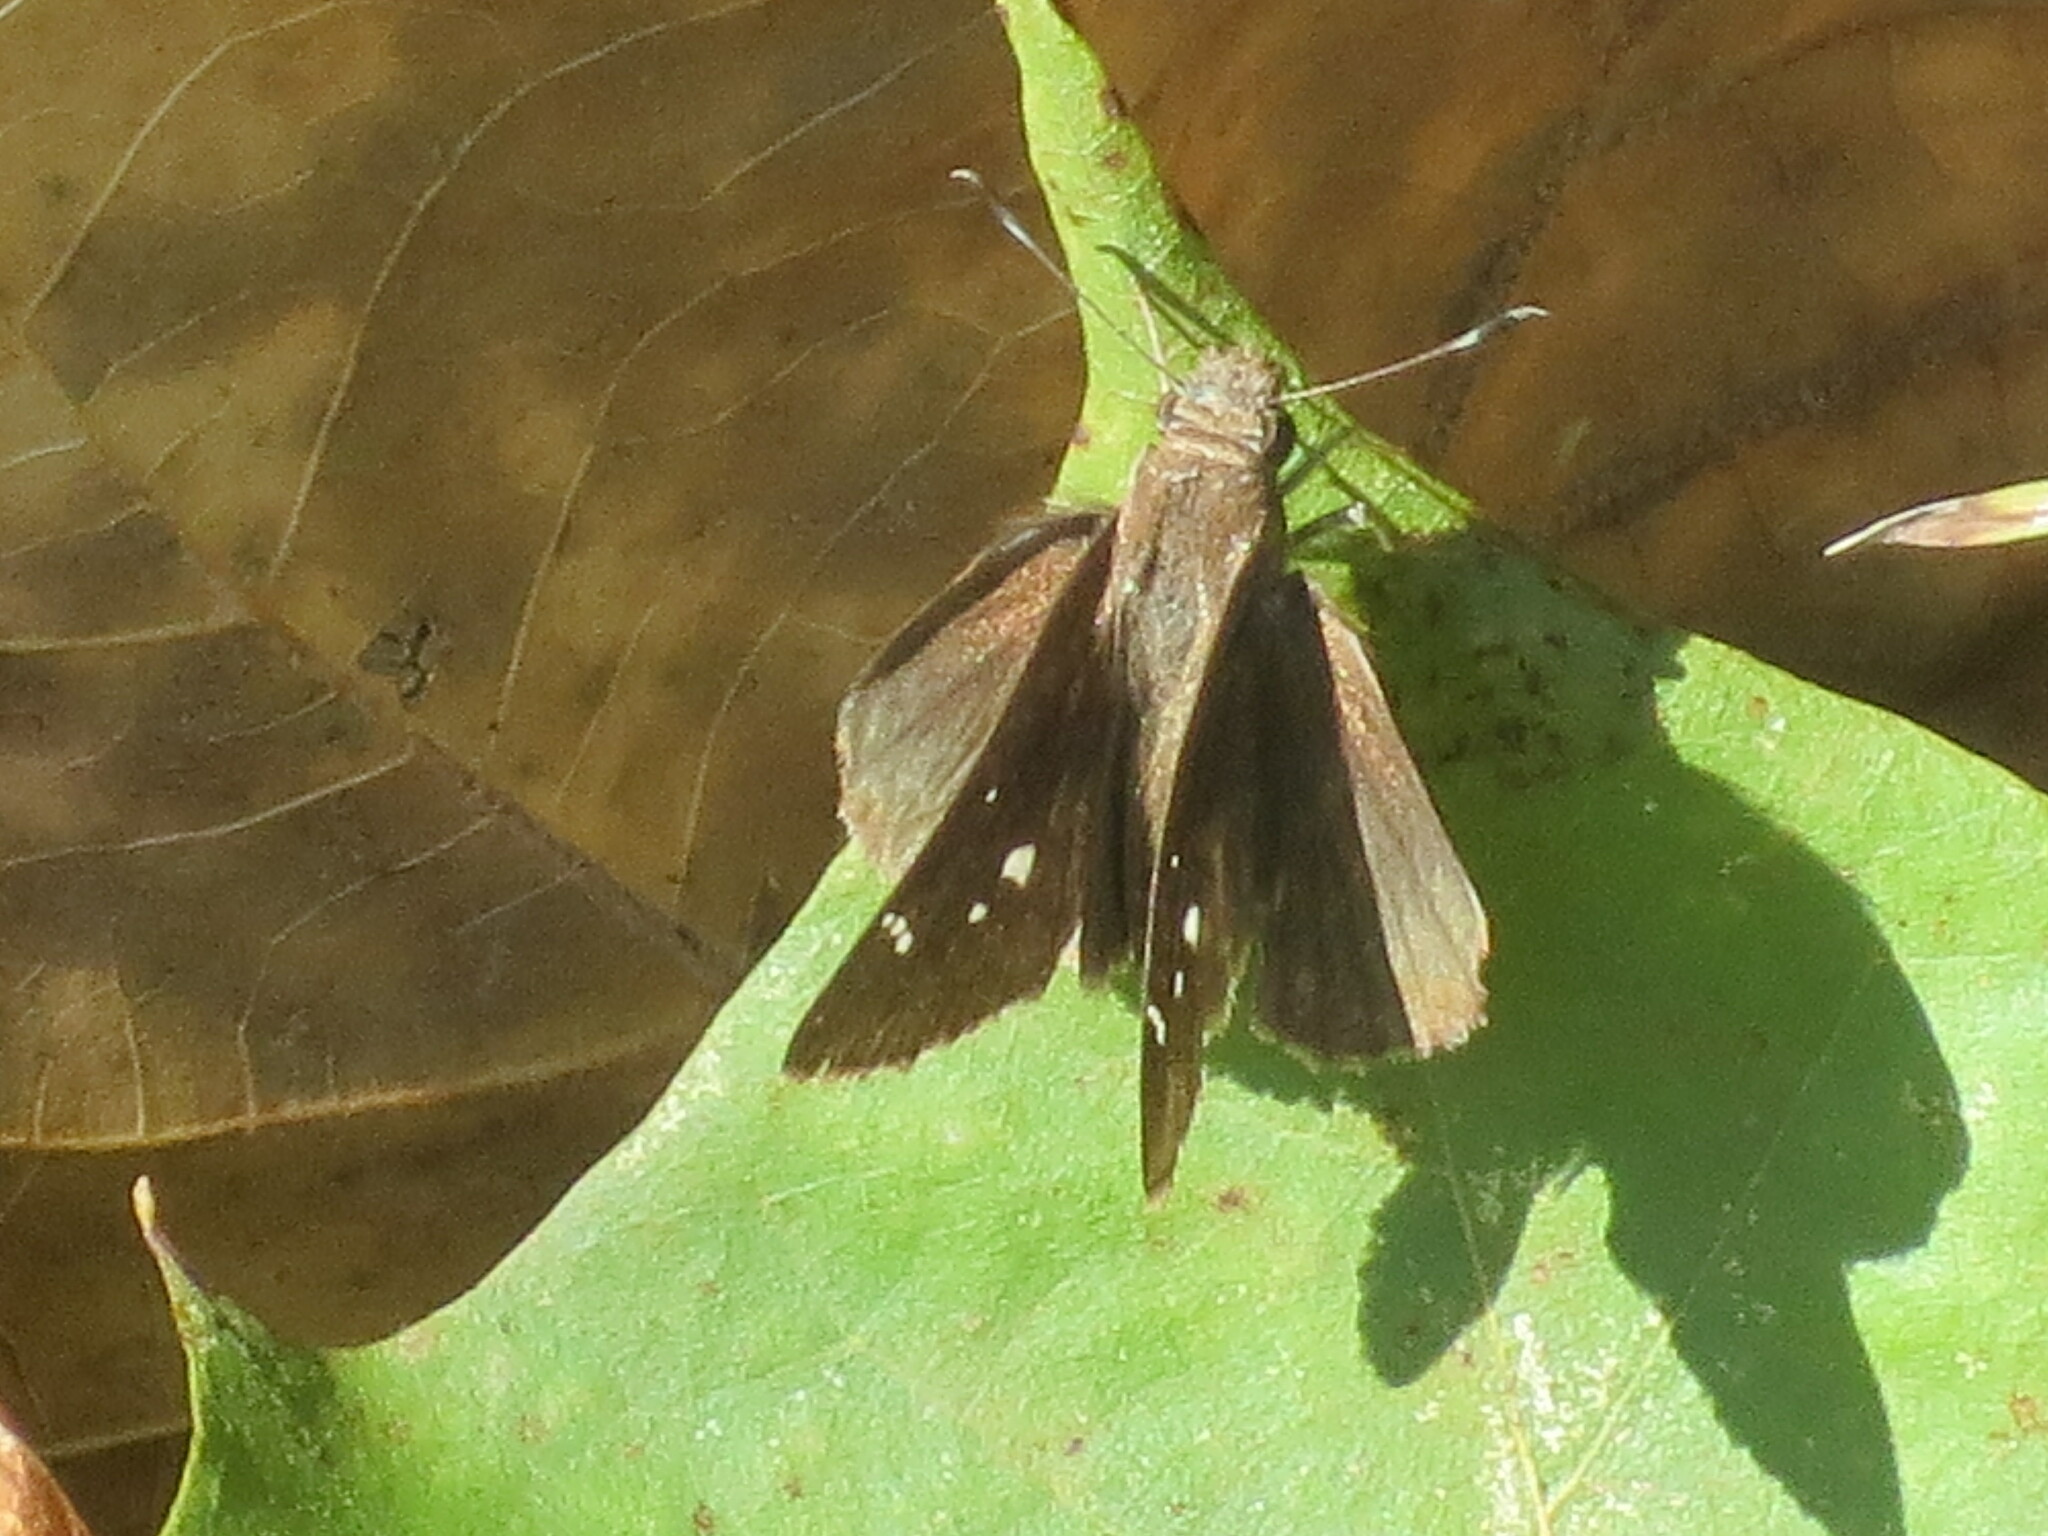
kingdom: Animalia
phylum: Arthropoda
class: Insecta
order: Lepidoptera
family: Hesperiidae
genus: Lerema
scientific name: Lerema accius
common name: Clouded skipper
